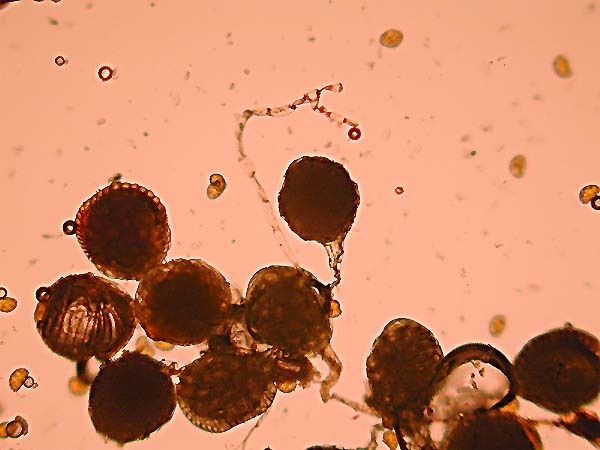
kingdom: Plantae
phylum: Tracheophyta
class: Polypodiopsida
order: Polypodiales
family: Polypodiaceae
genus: Polypodium
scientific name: Polypodium cambricum
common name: Southern polypody
